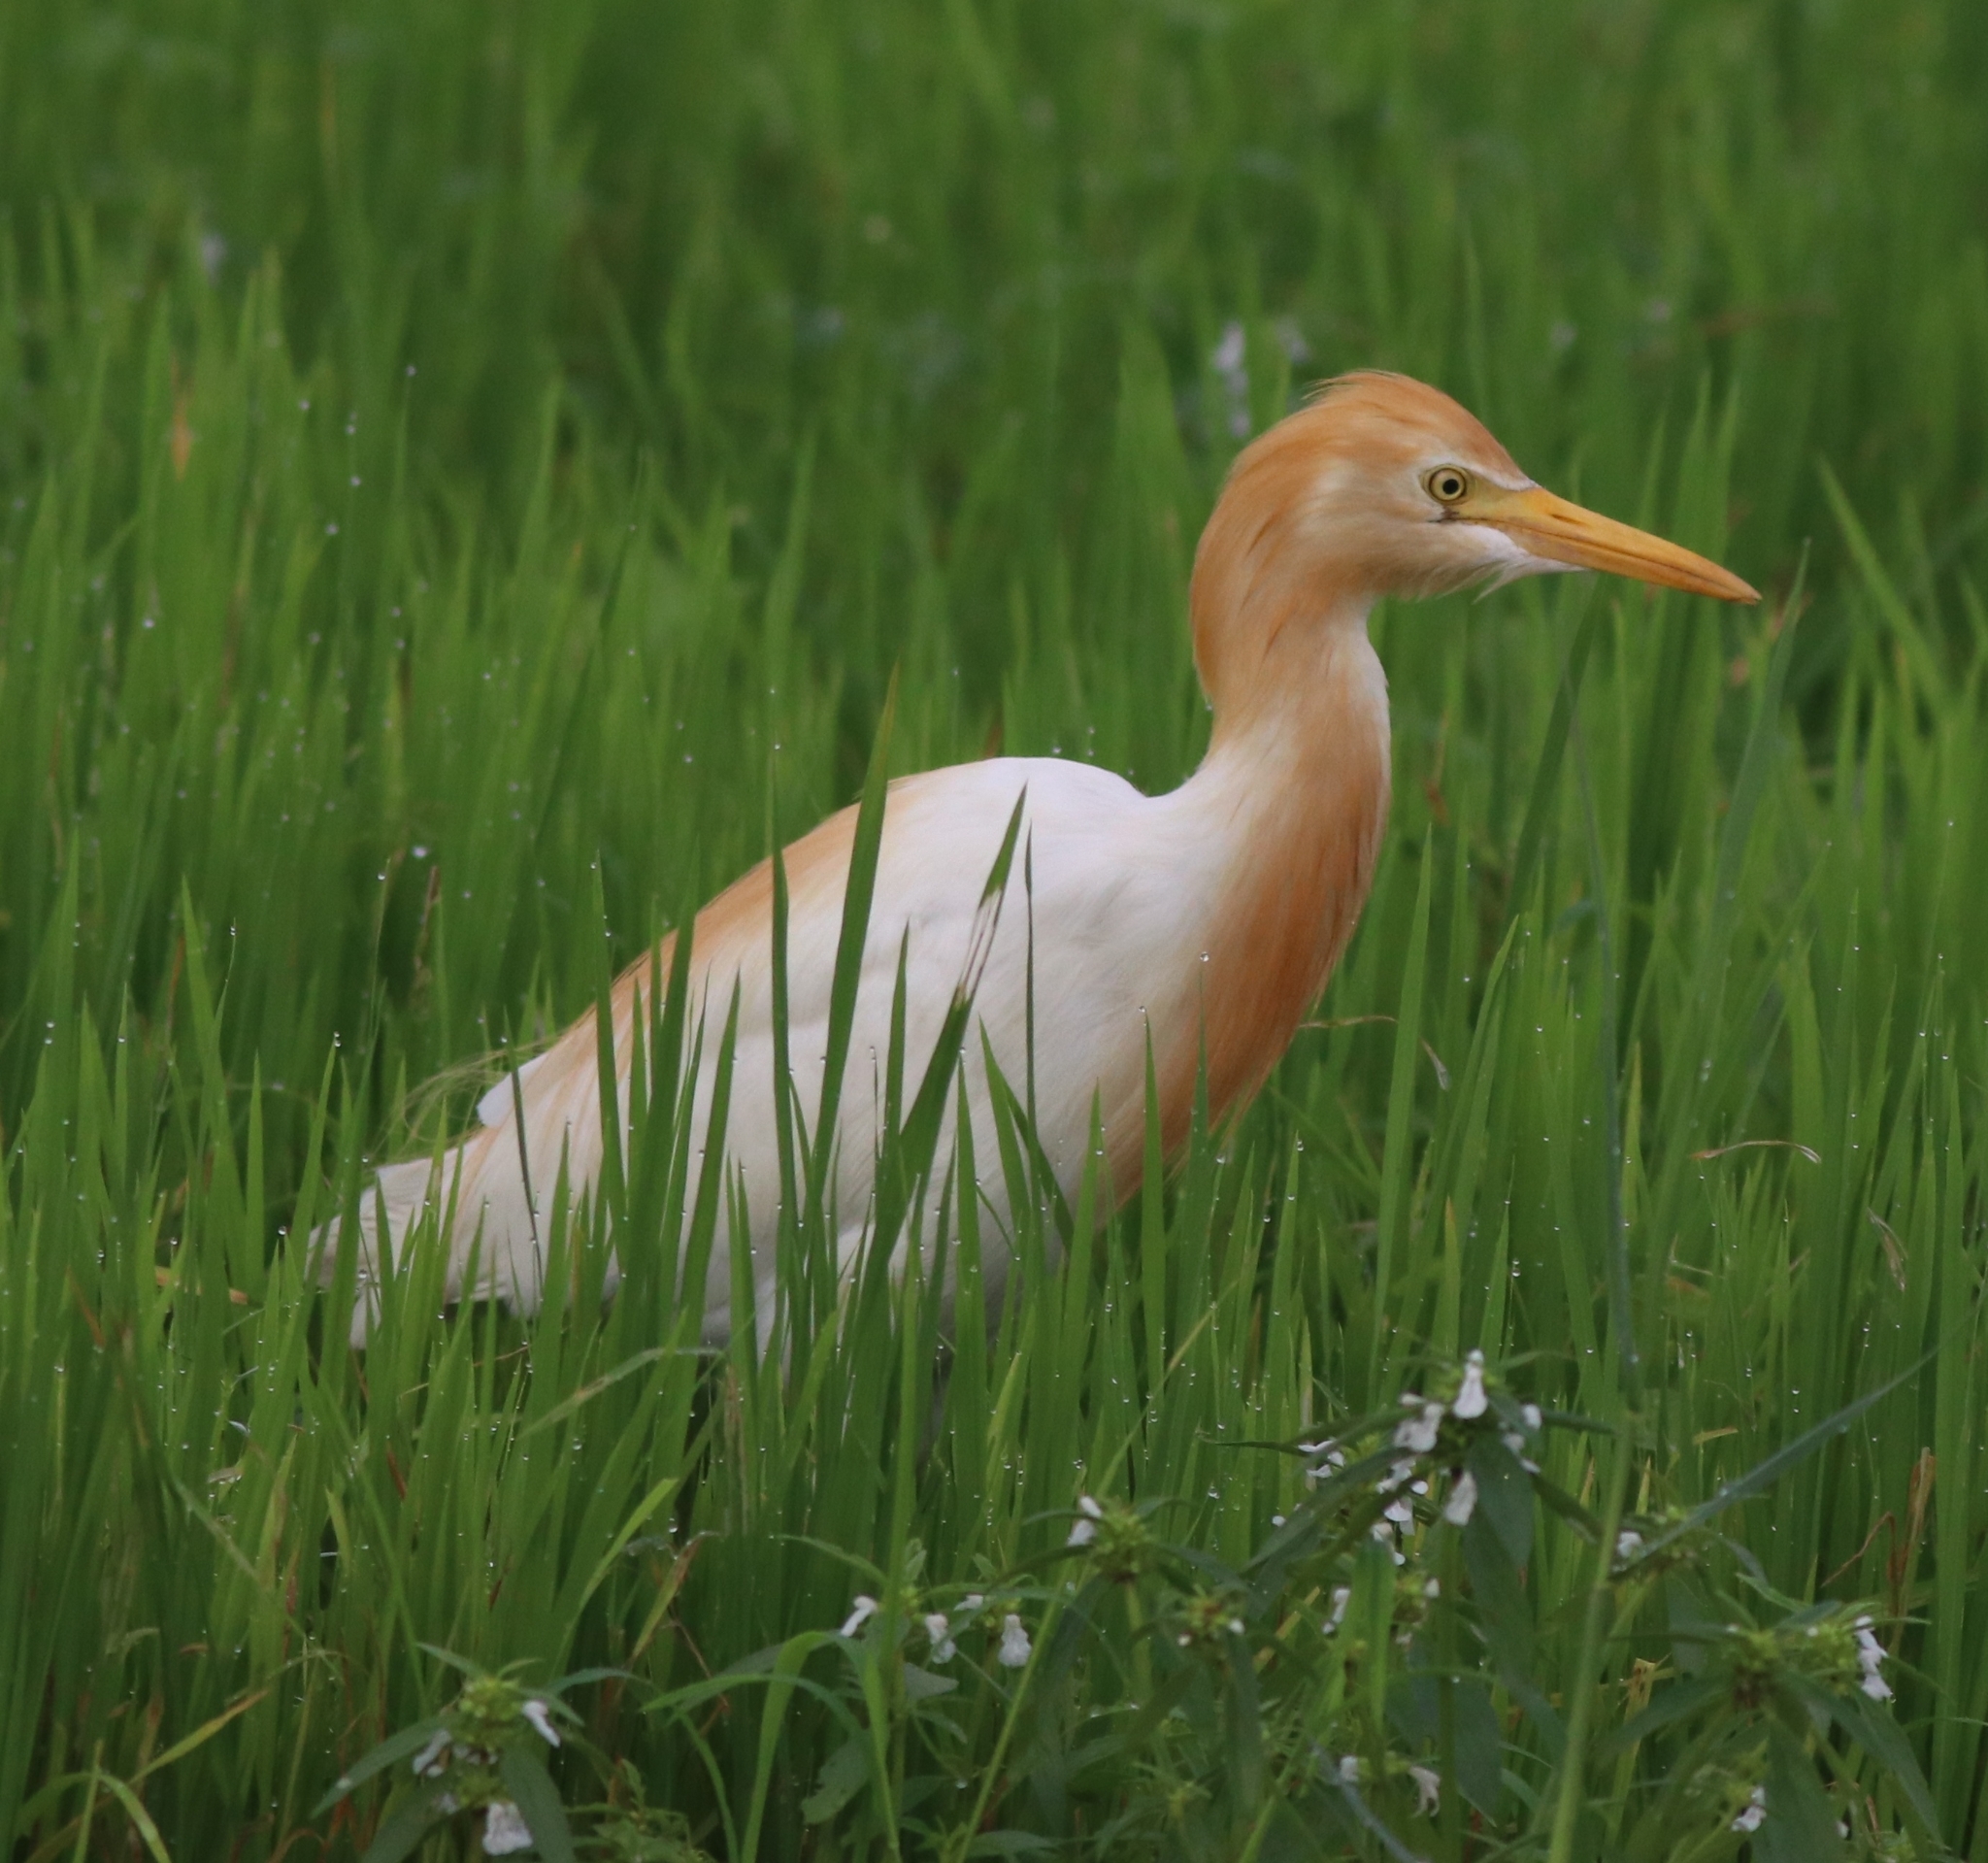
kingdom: Animalia
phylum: Chordata
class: Aves
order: Pelecaniformes
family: Ardeidae
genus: Bubulcus
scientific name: Bubulcus coromandus
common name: Eastern cattle egret
